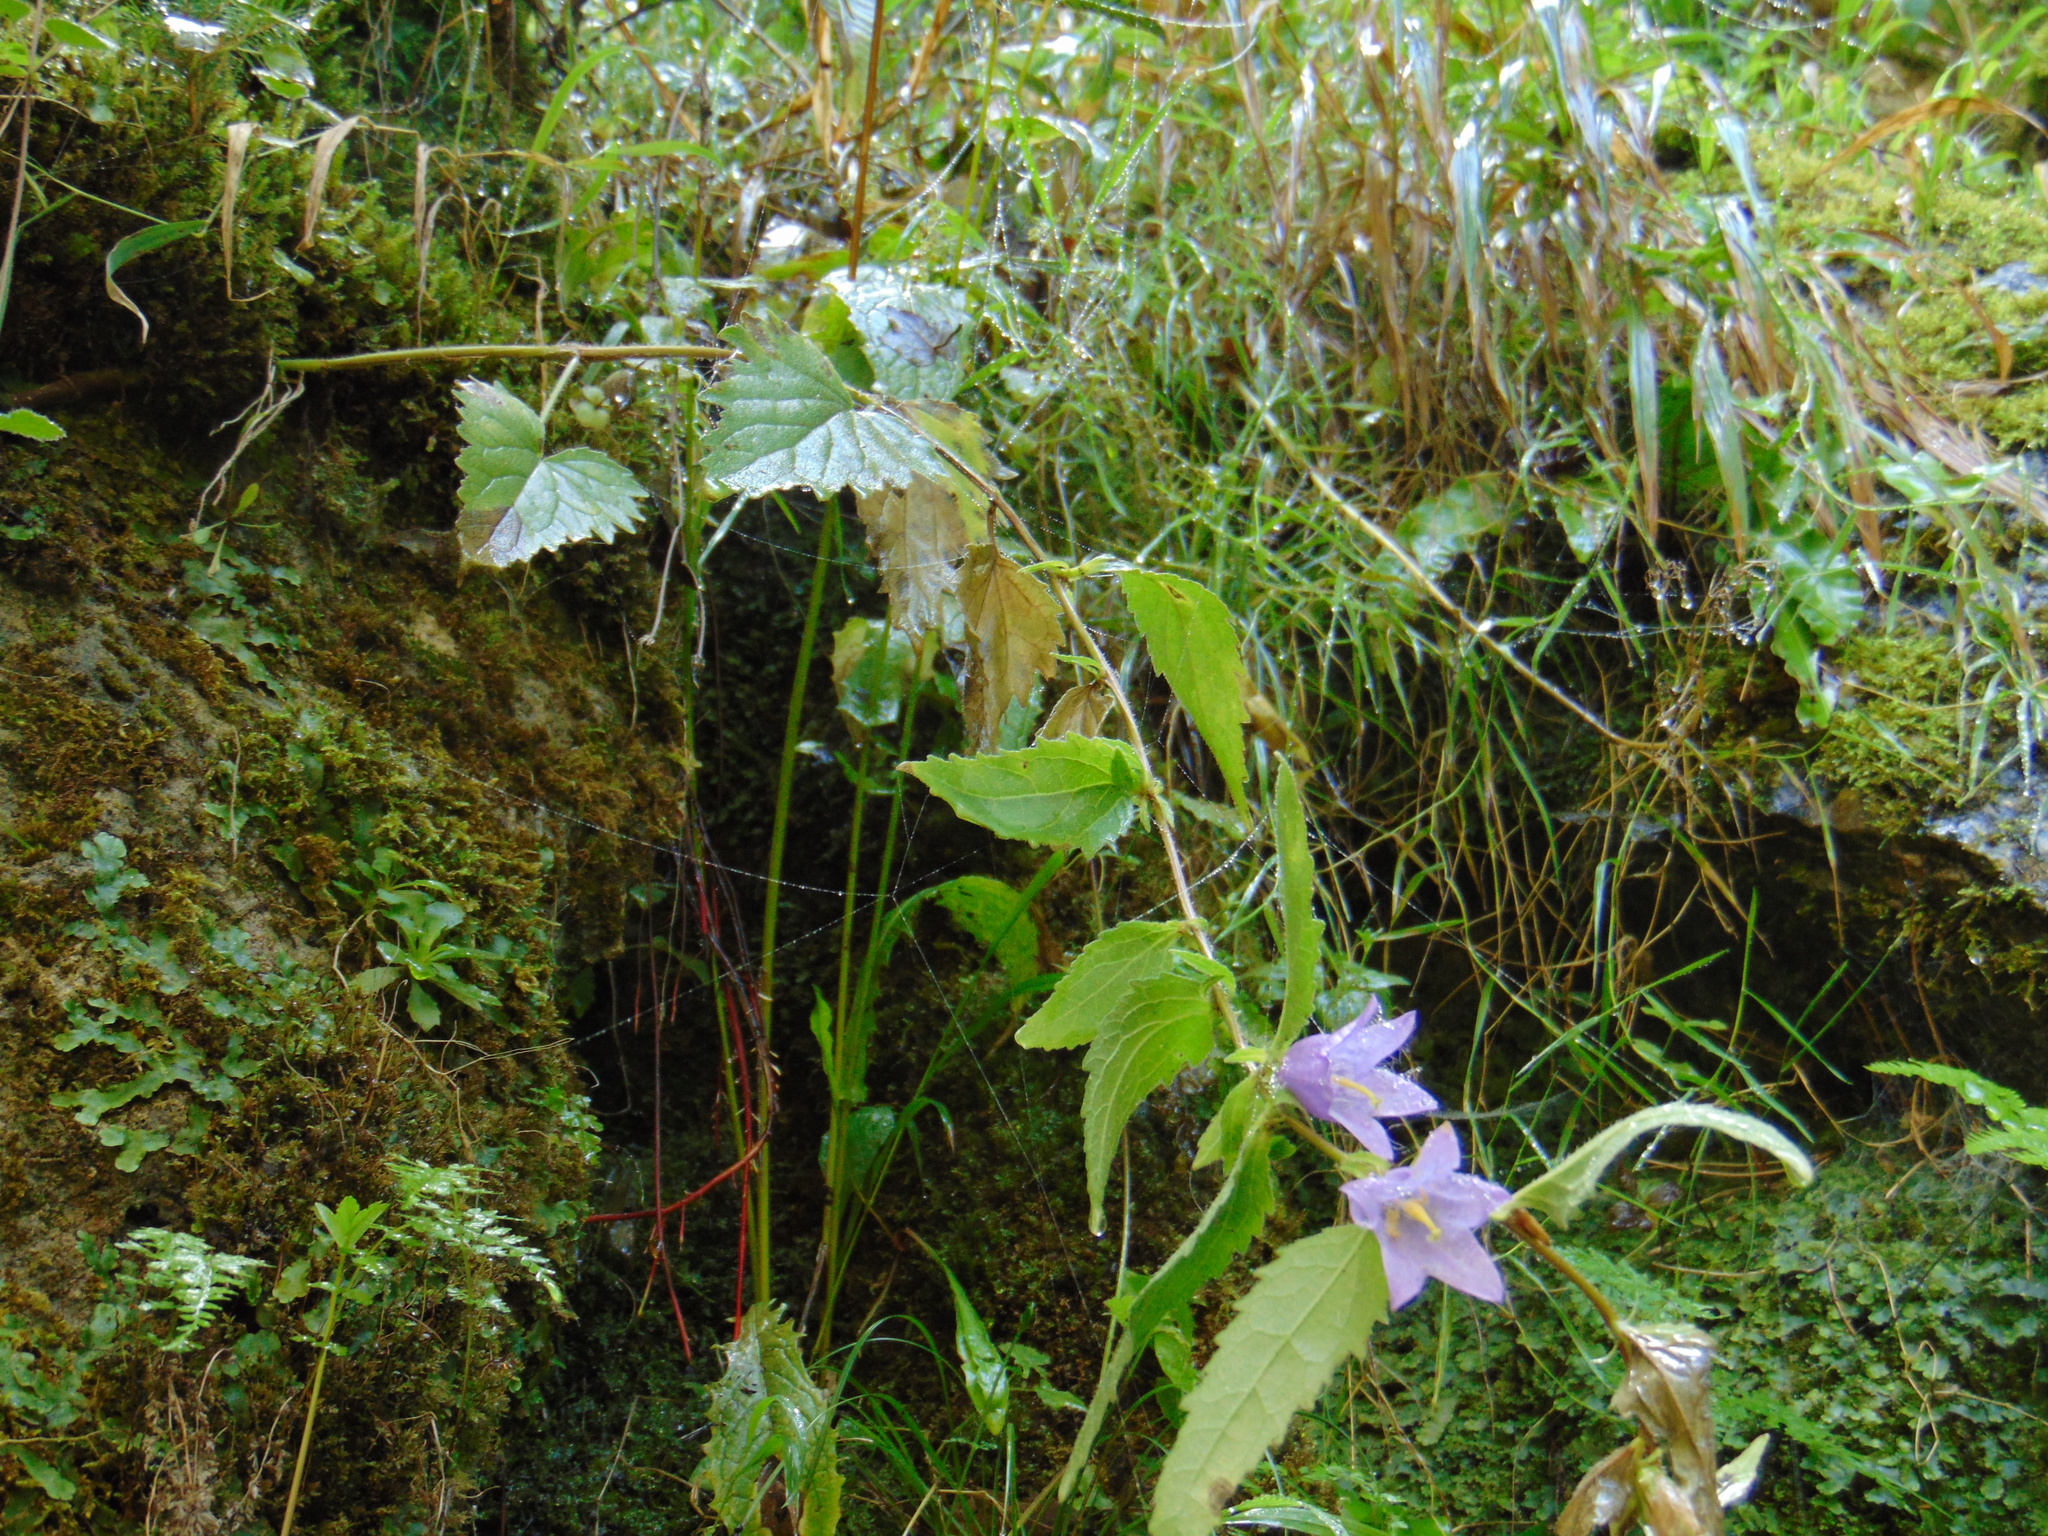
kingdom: Plantae
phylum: Tracheophyta
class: Magnoliopsida
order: Asterales
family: Campanulaceae
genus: Campanula
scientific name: Campanula trachelium
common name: Nettle-leaved bellflower
